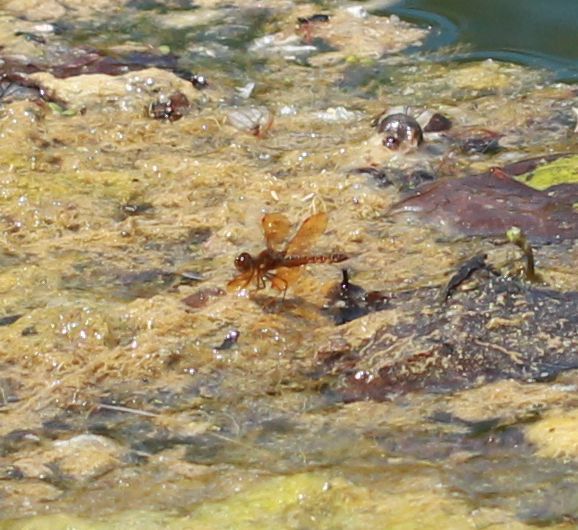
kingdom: Animalia
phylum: Arthropoda
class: Insecta
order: Odonata
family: Libellulidae
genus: Perithemis
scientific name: Perithemis tenera
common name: Eastern amberwing
